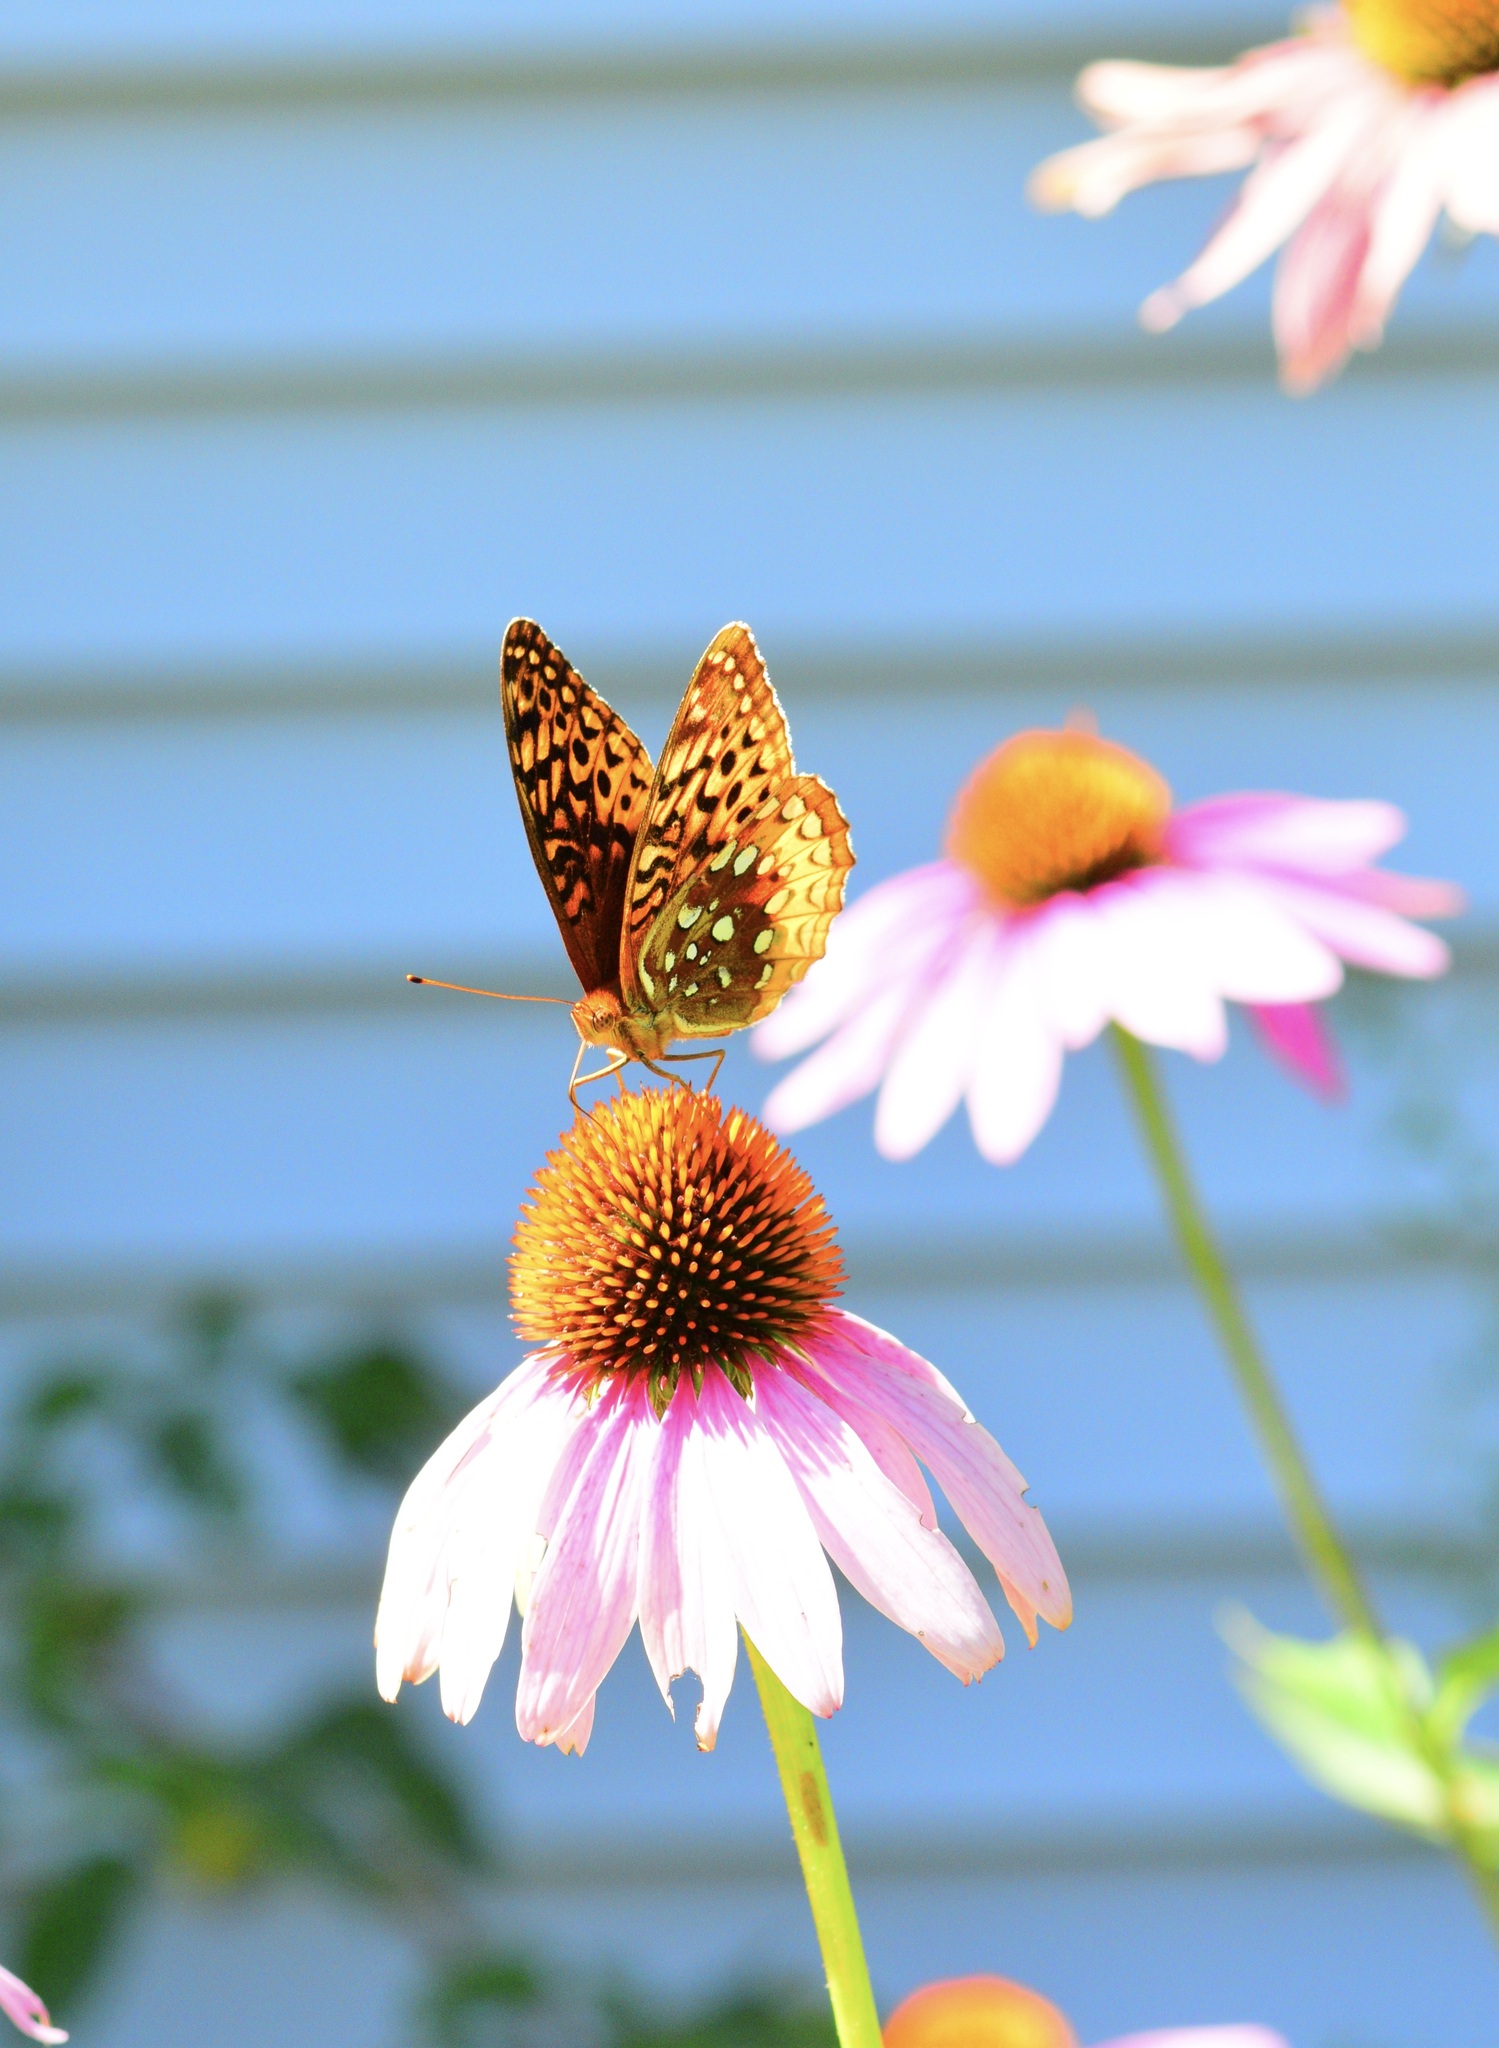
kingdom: Animalia
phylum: Arthropoda
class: Insecta
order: Lepidoptera
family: Nymphalidae
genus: Speyeria
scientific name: Speyeria cybele
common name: Great spangled fritillary
